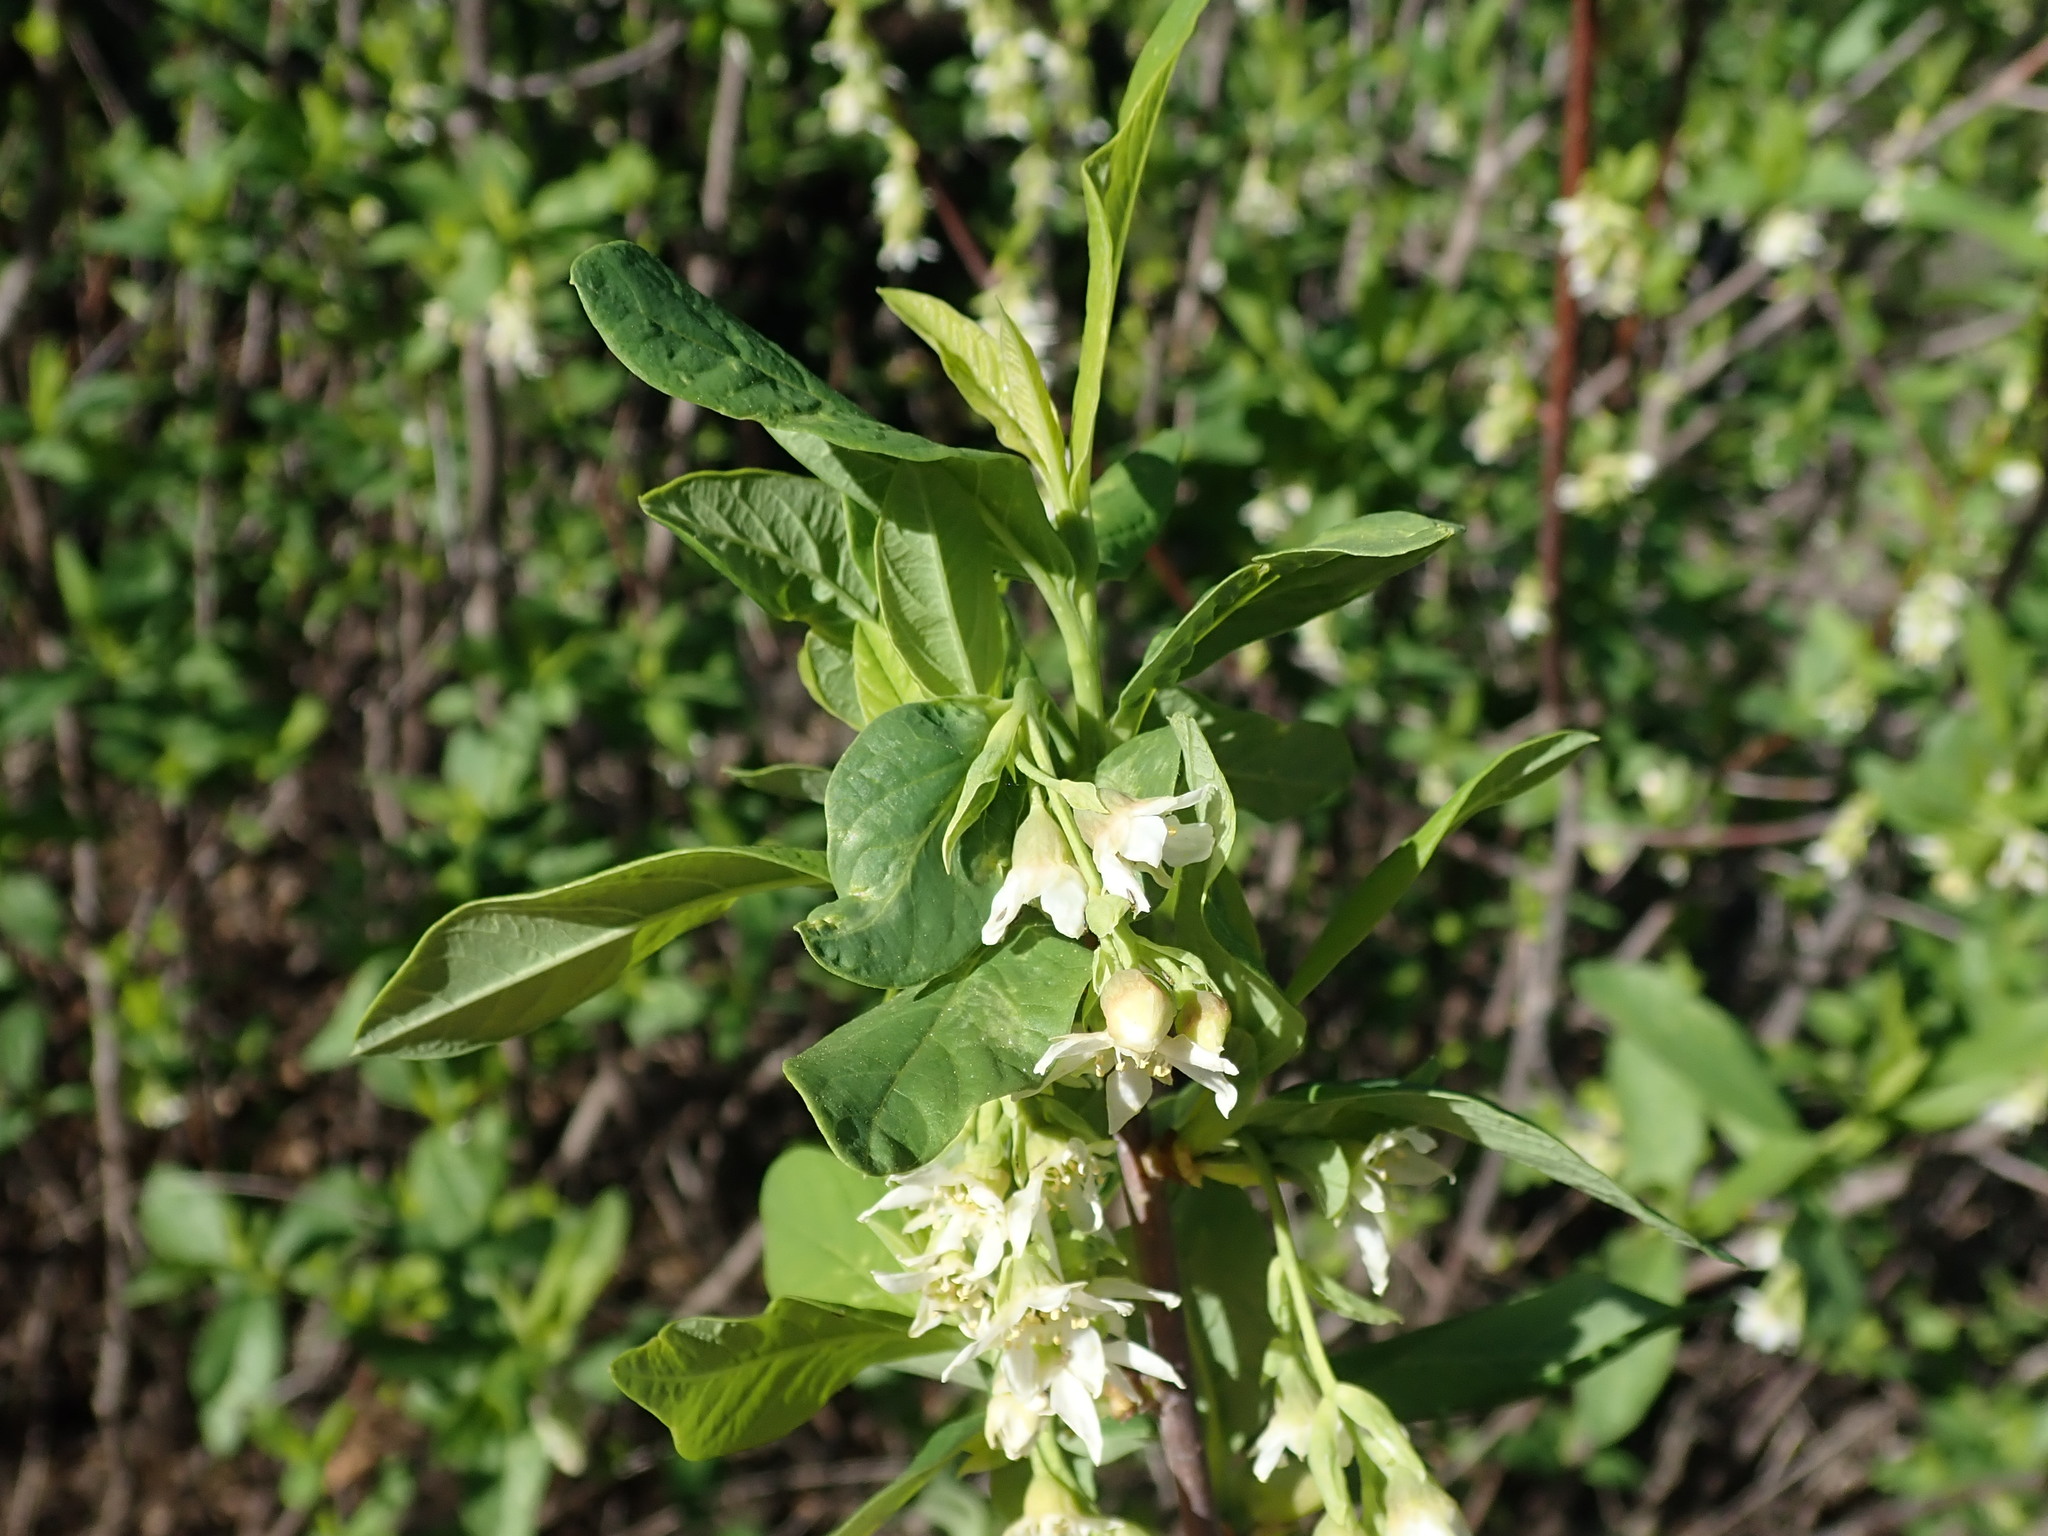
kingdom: Plantae
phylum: Tracheophyta
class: Magnoliopsida
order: Rosales
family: Rosaceae
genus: Oemleria
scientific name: Oemleria cerasiformis
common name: Osoberry
